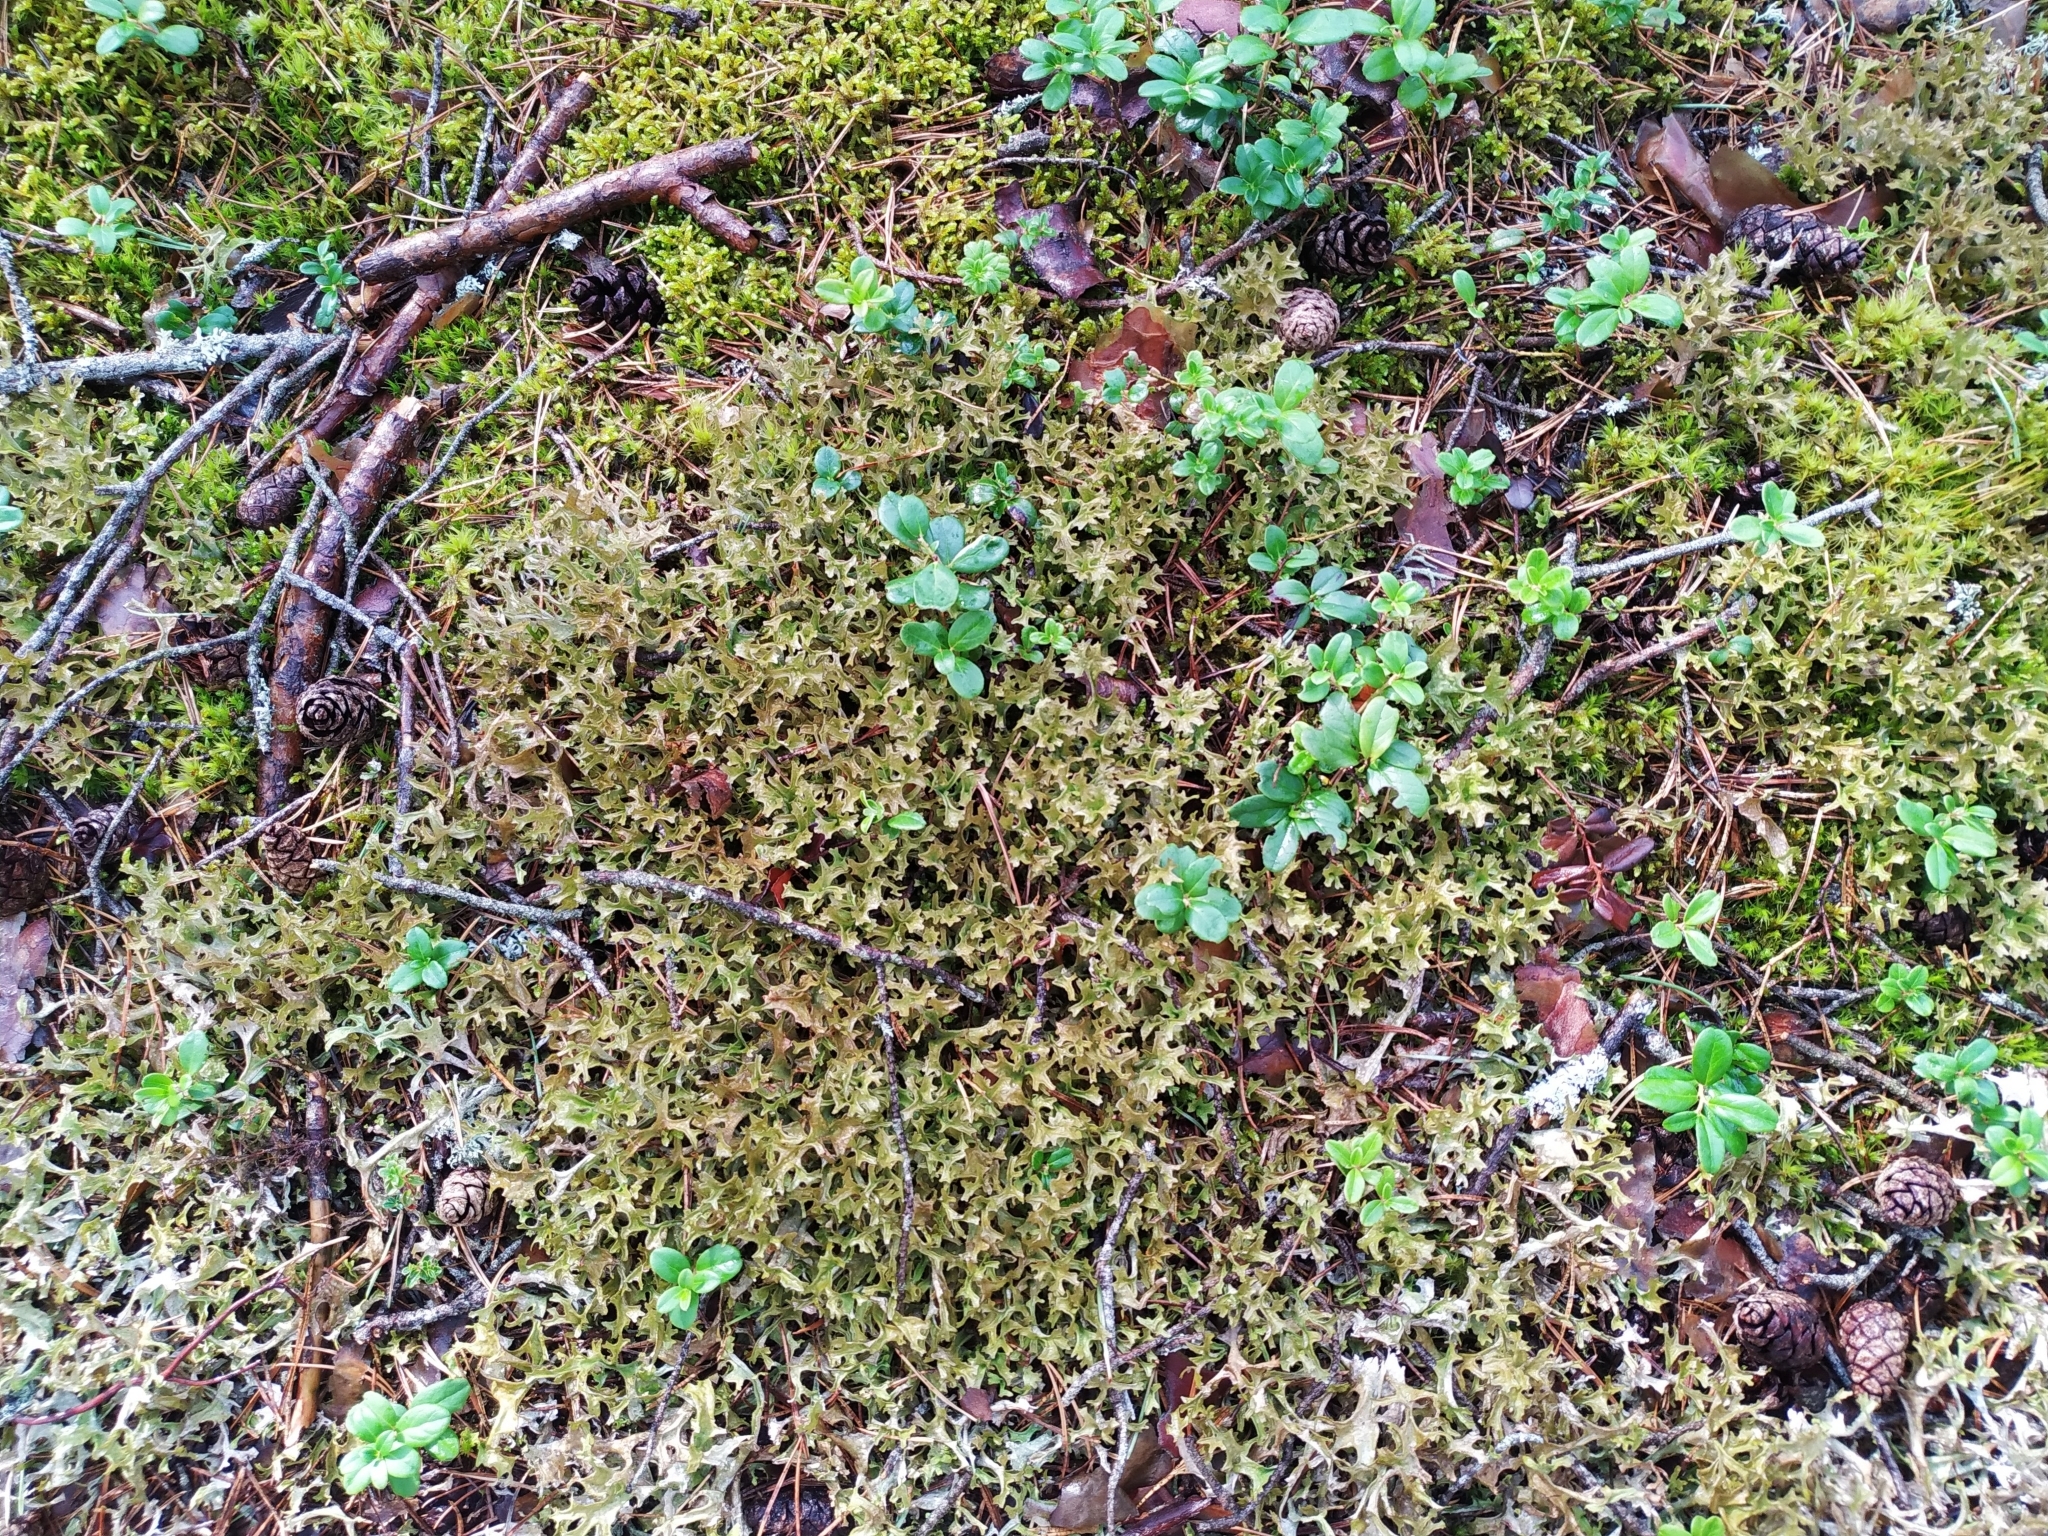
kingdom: Fungi
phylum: Ascomycota
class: Lecanoromycetes
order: Lecanorales
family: Parmeliaceae
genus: Cetraria
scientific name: Cetraria islandica
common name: Iceland lichen
